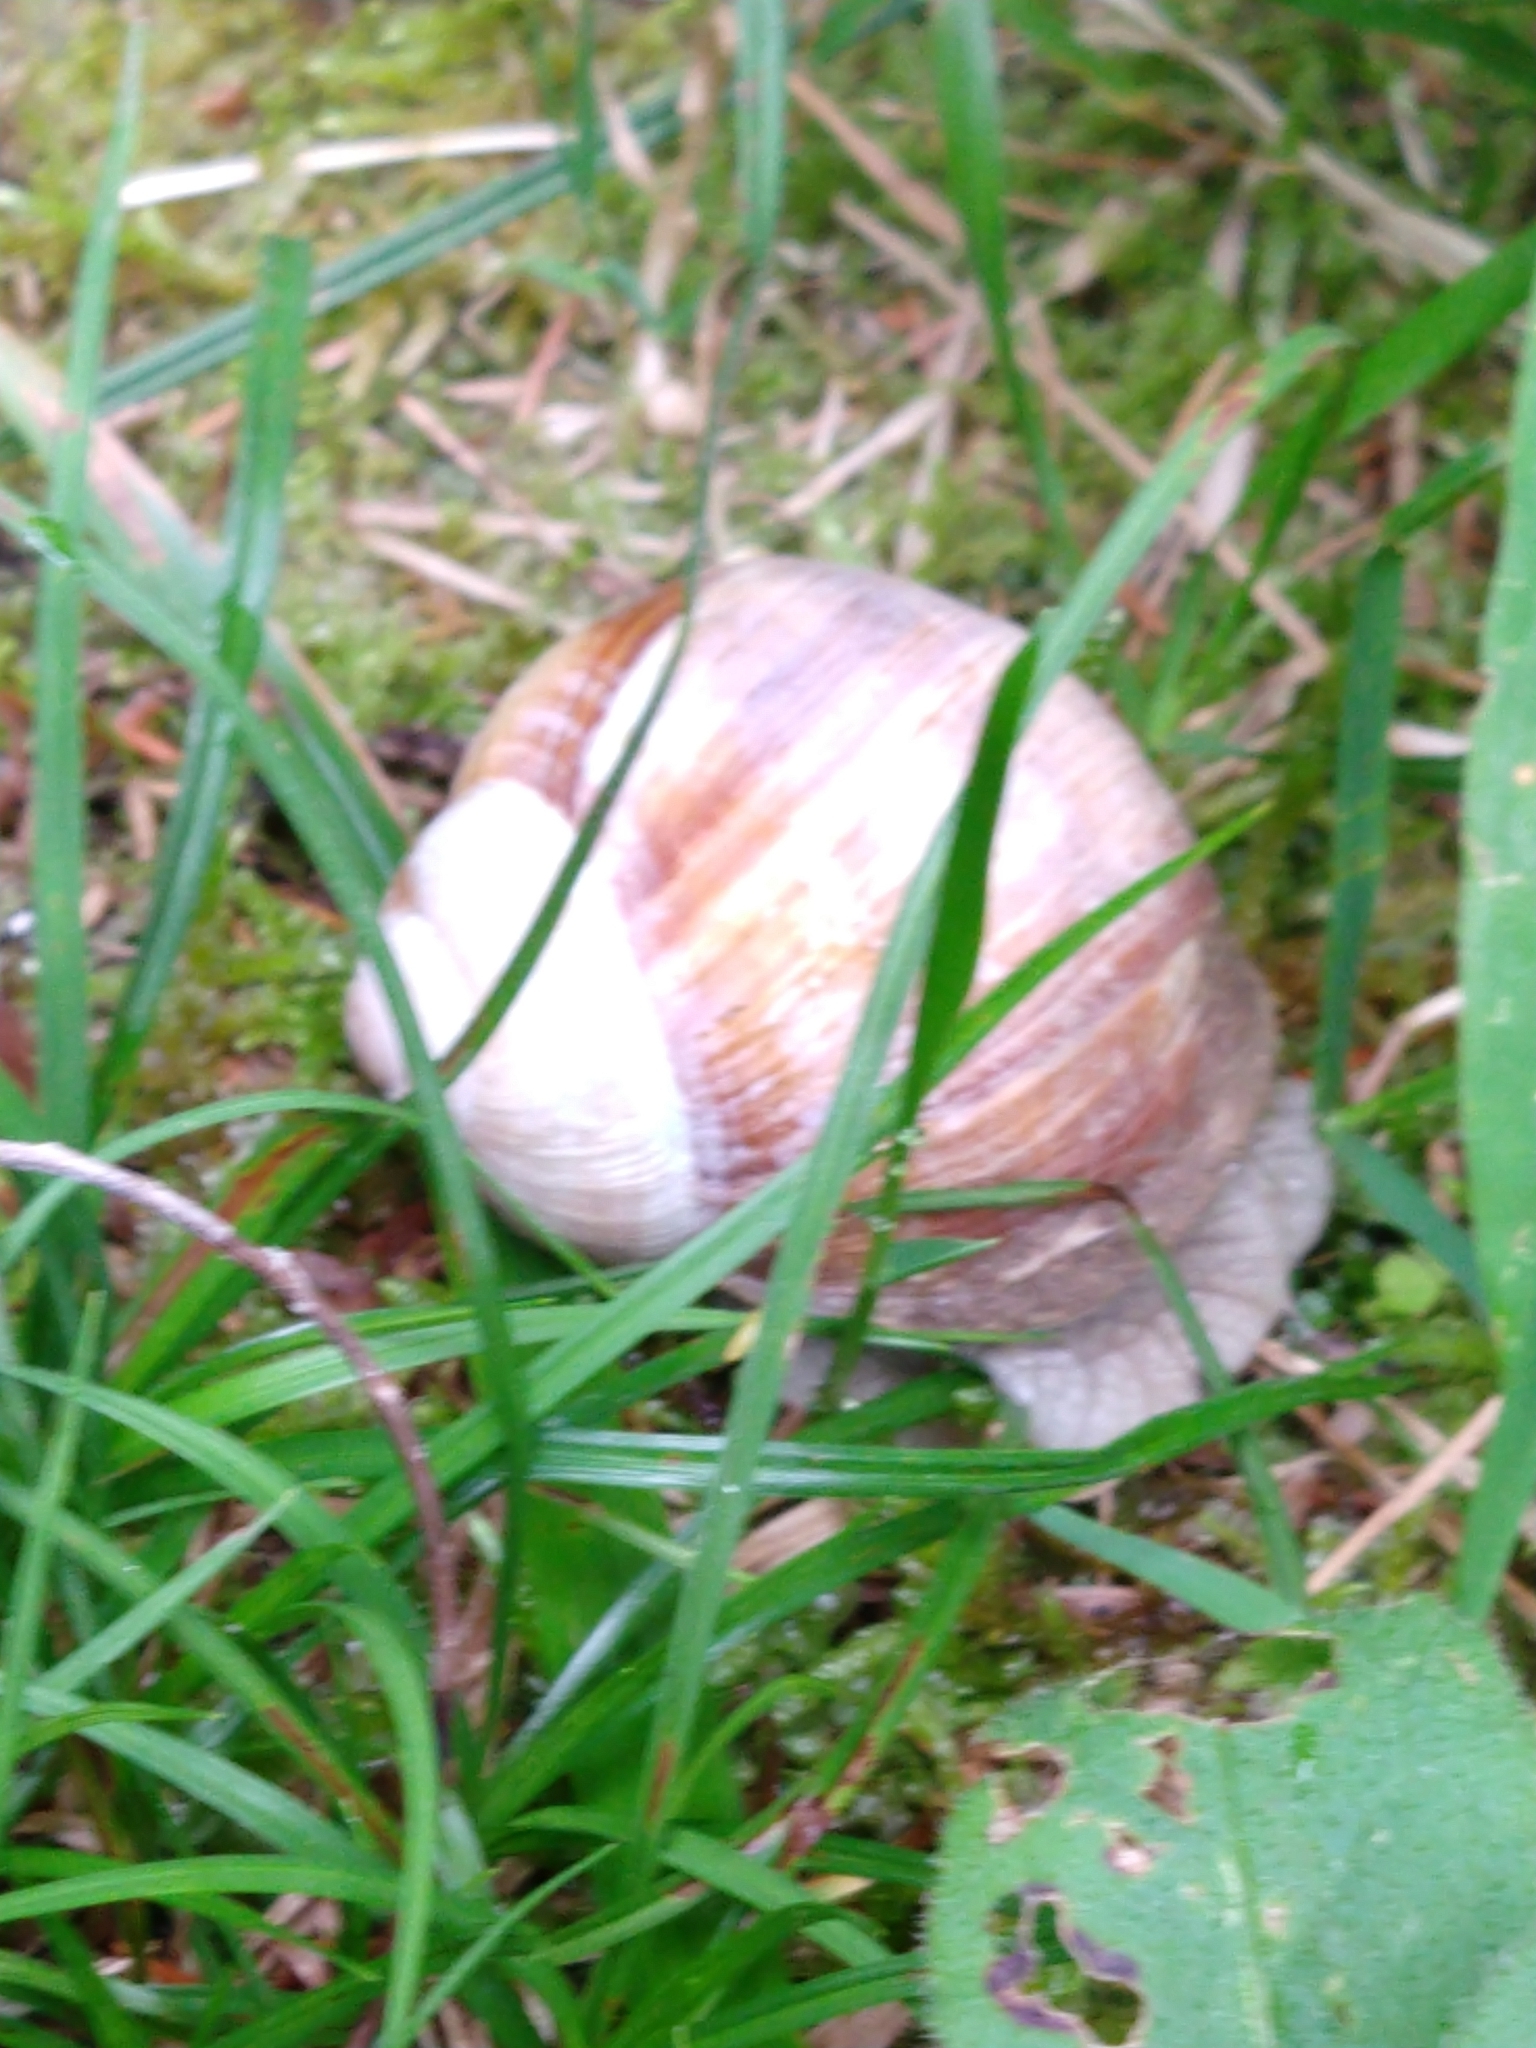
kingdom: Animalia
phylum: Mollusca
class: Gastropoda
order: Stylommatophora
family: Helicidae
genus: Helix
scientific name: Helix pomatia
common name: Roman snail
